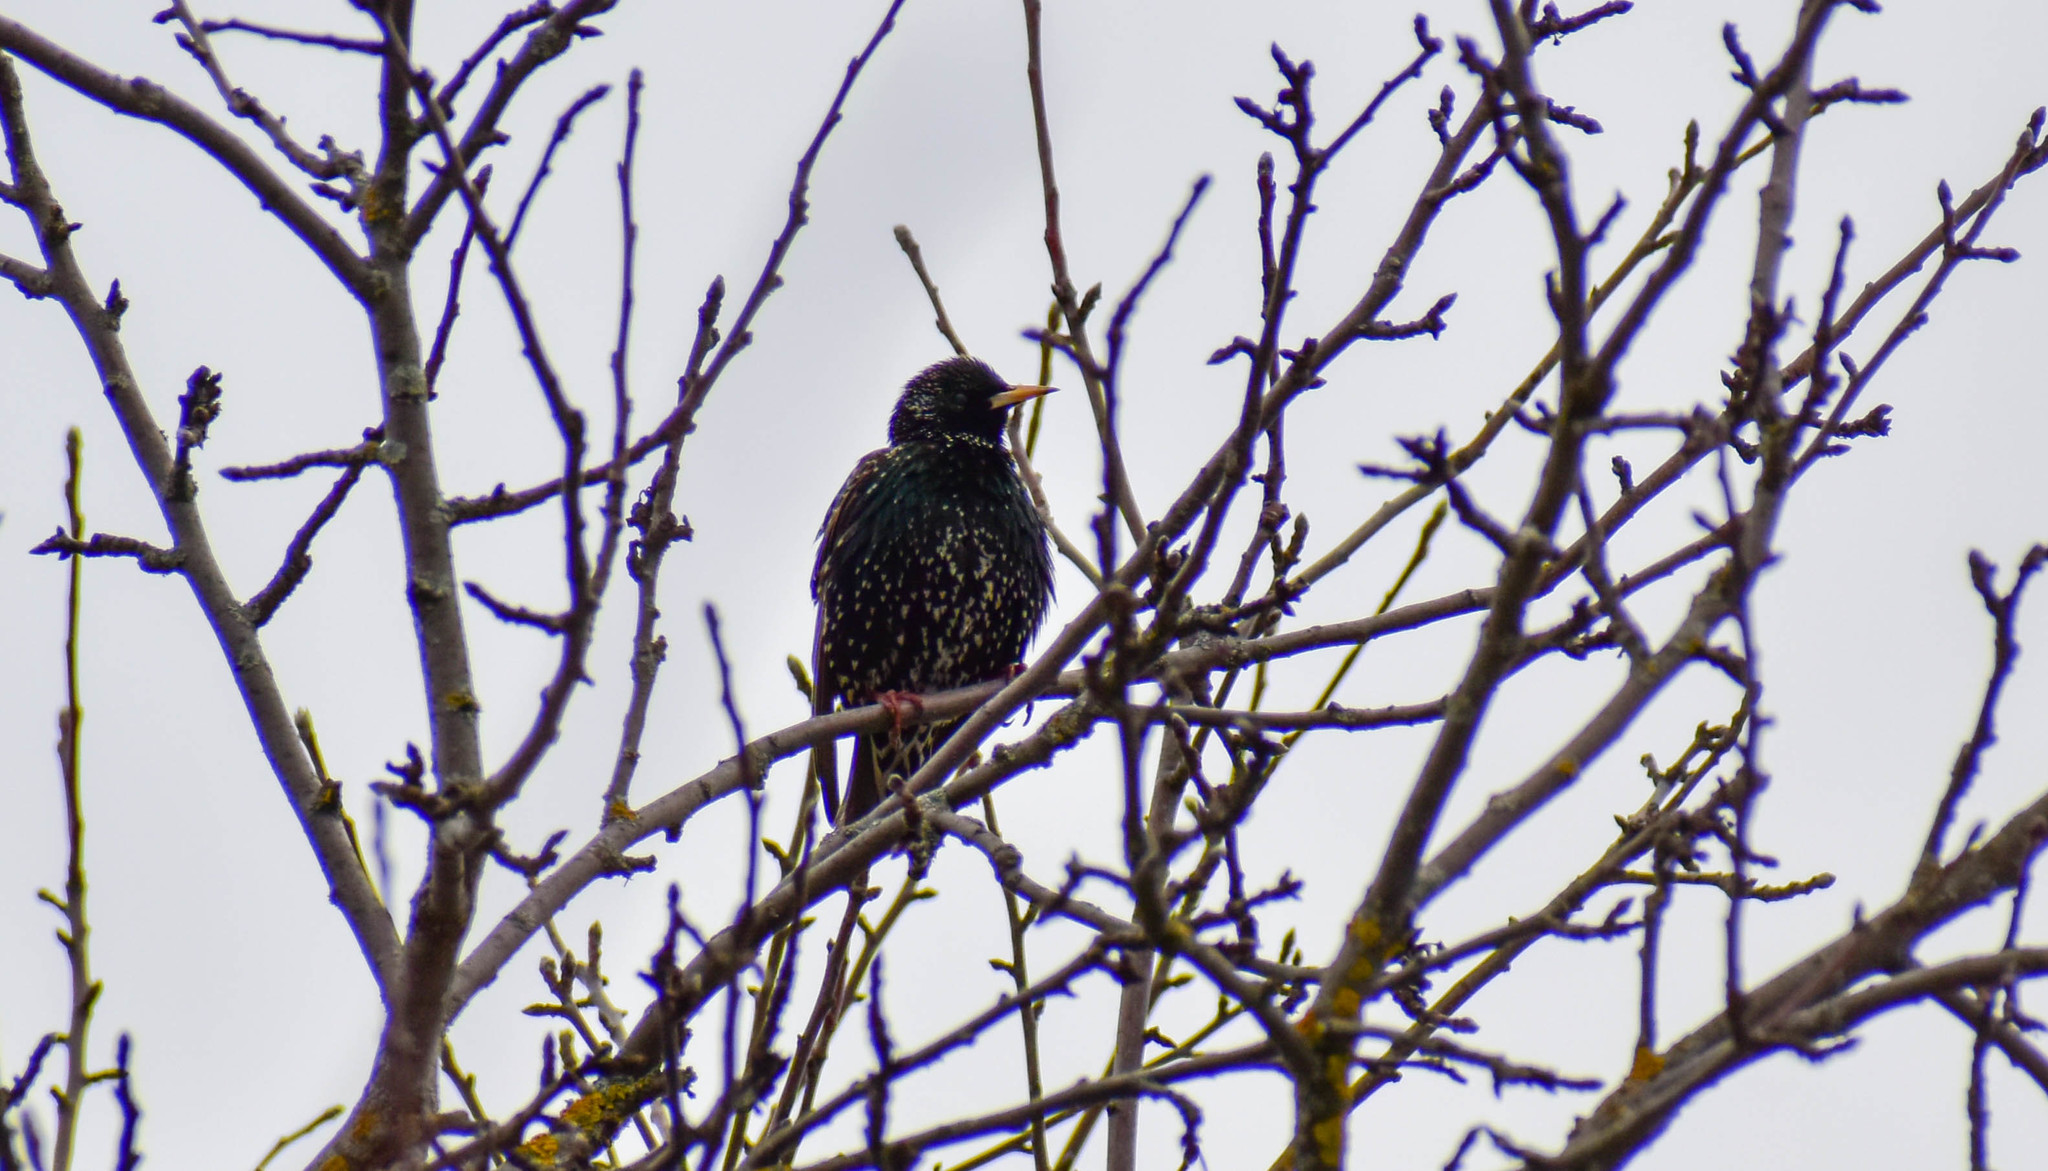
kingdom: Animalia
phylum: Chordata
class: Aves
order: Passeriformes
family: Sturnidae
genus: Sturnus
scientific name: Sturnus vulgaris
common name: Common starling
